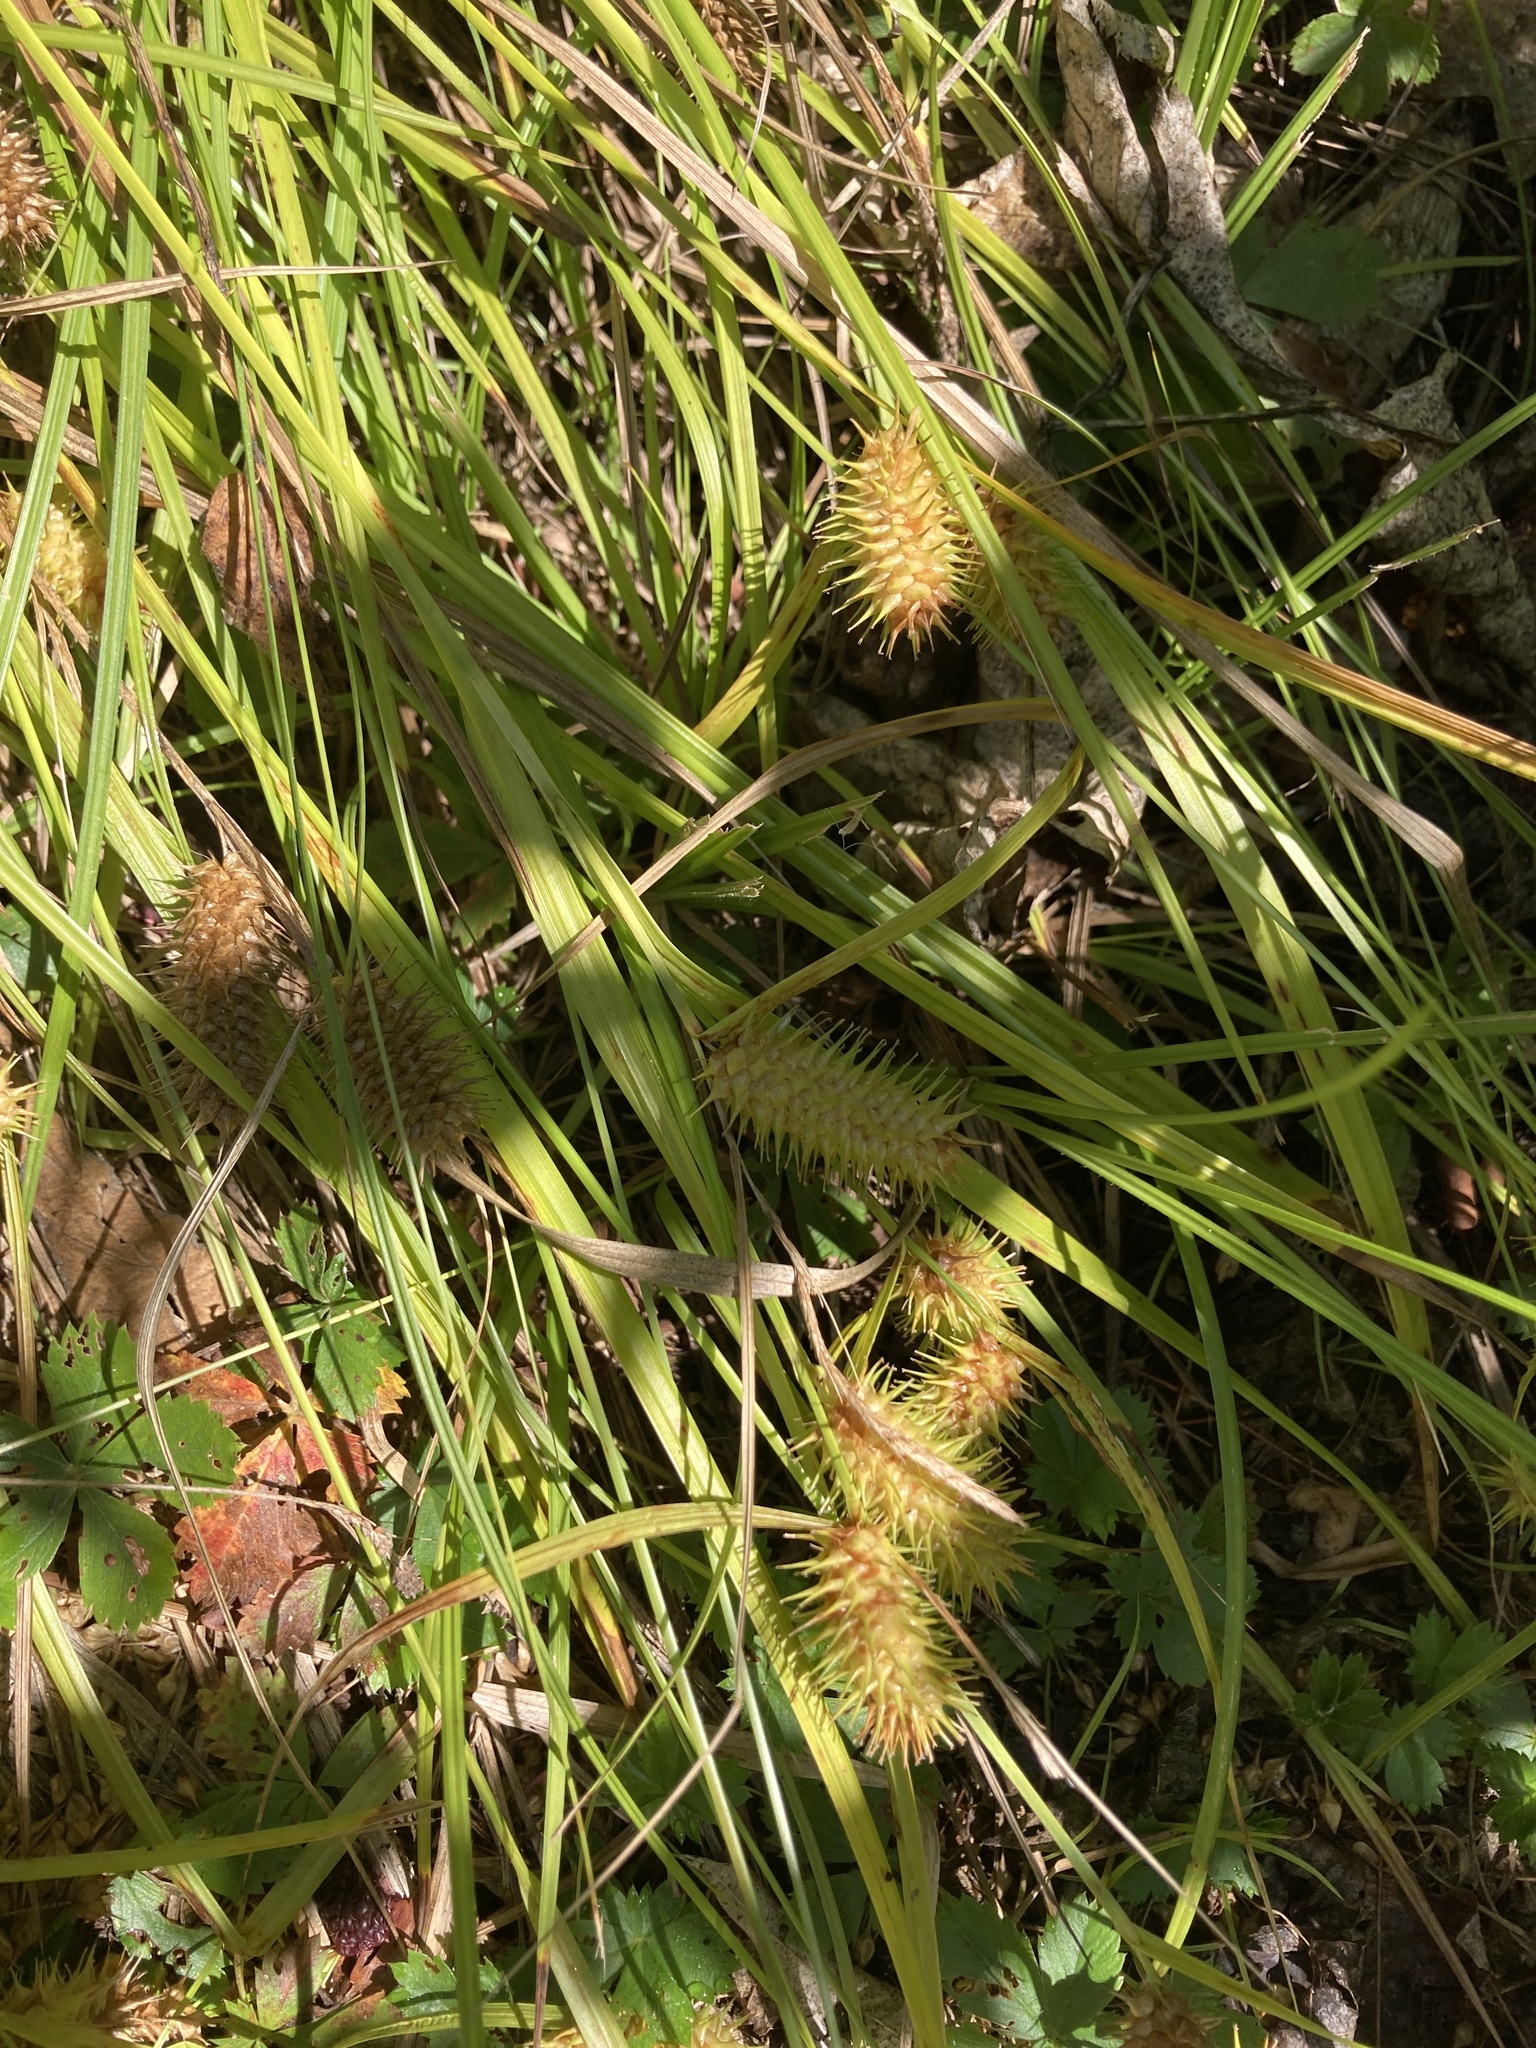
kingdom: Plantae
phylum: Tracheophyta
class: Liliopsida
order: Poales
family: Cyperaceae
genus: Carex
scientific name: Carex lurida
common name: Sallow sedge
